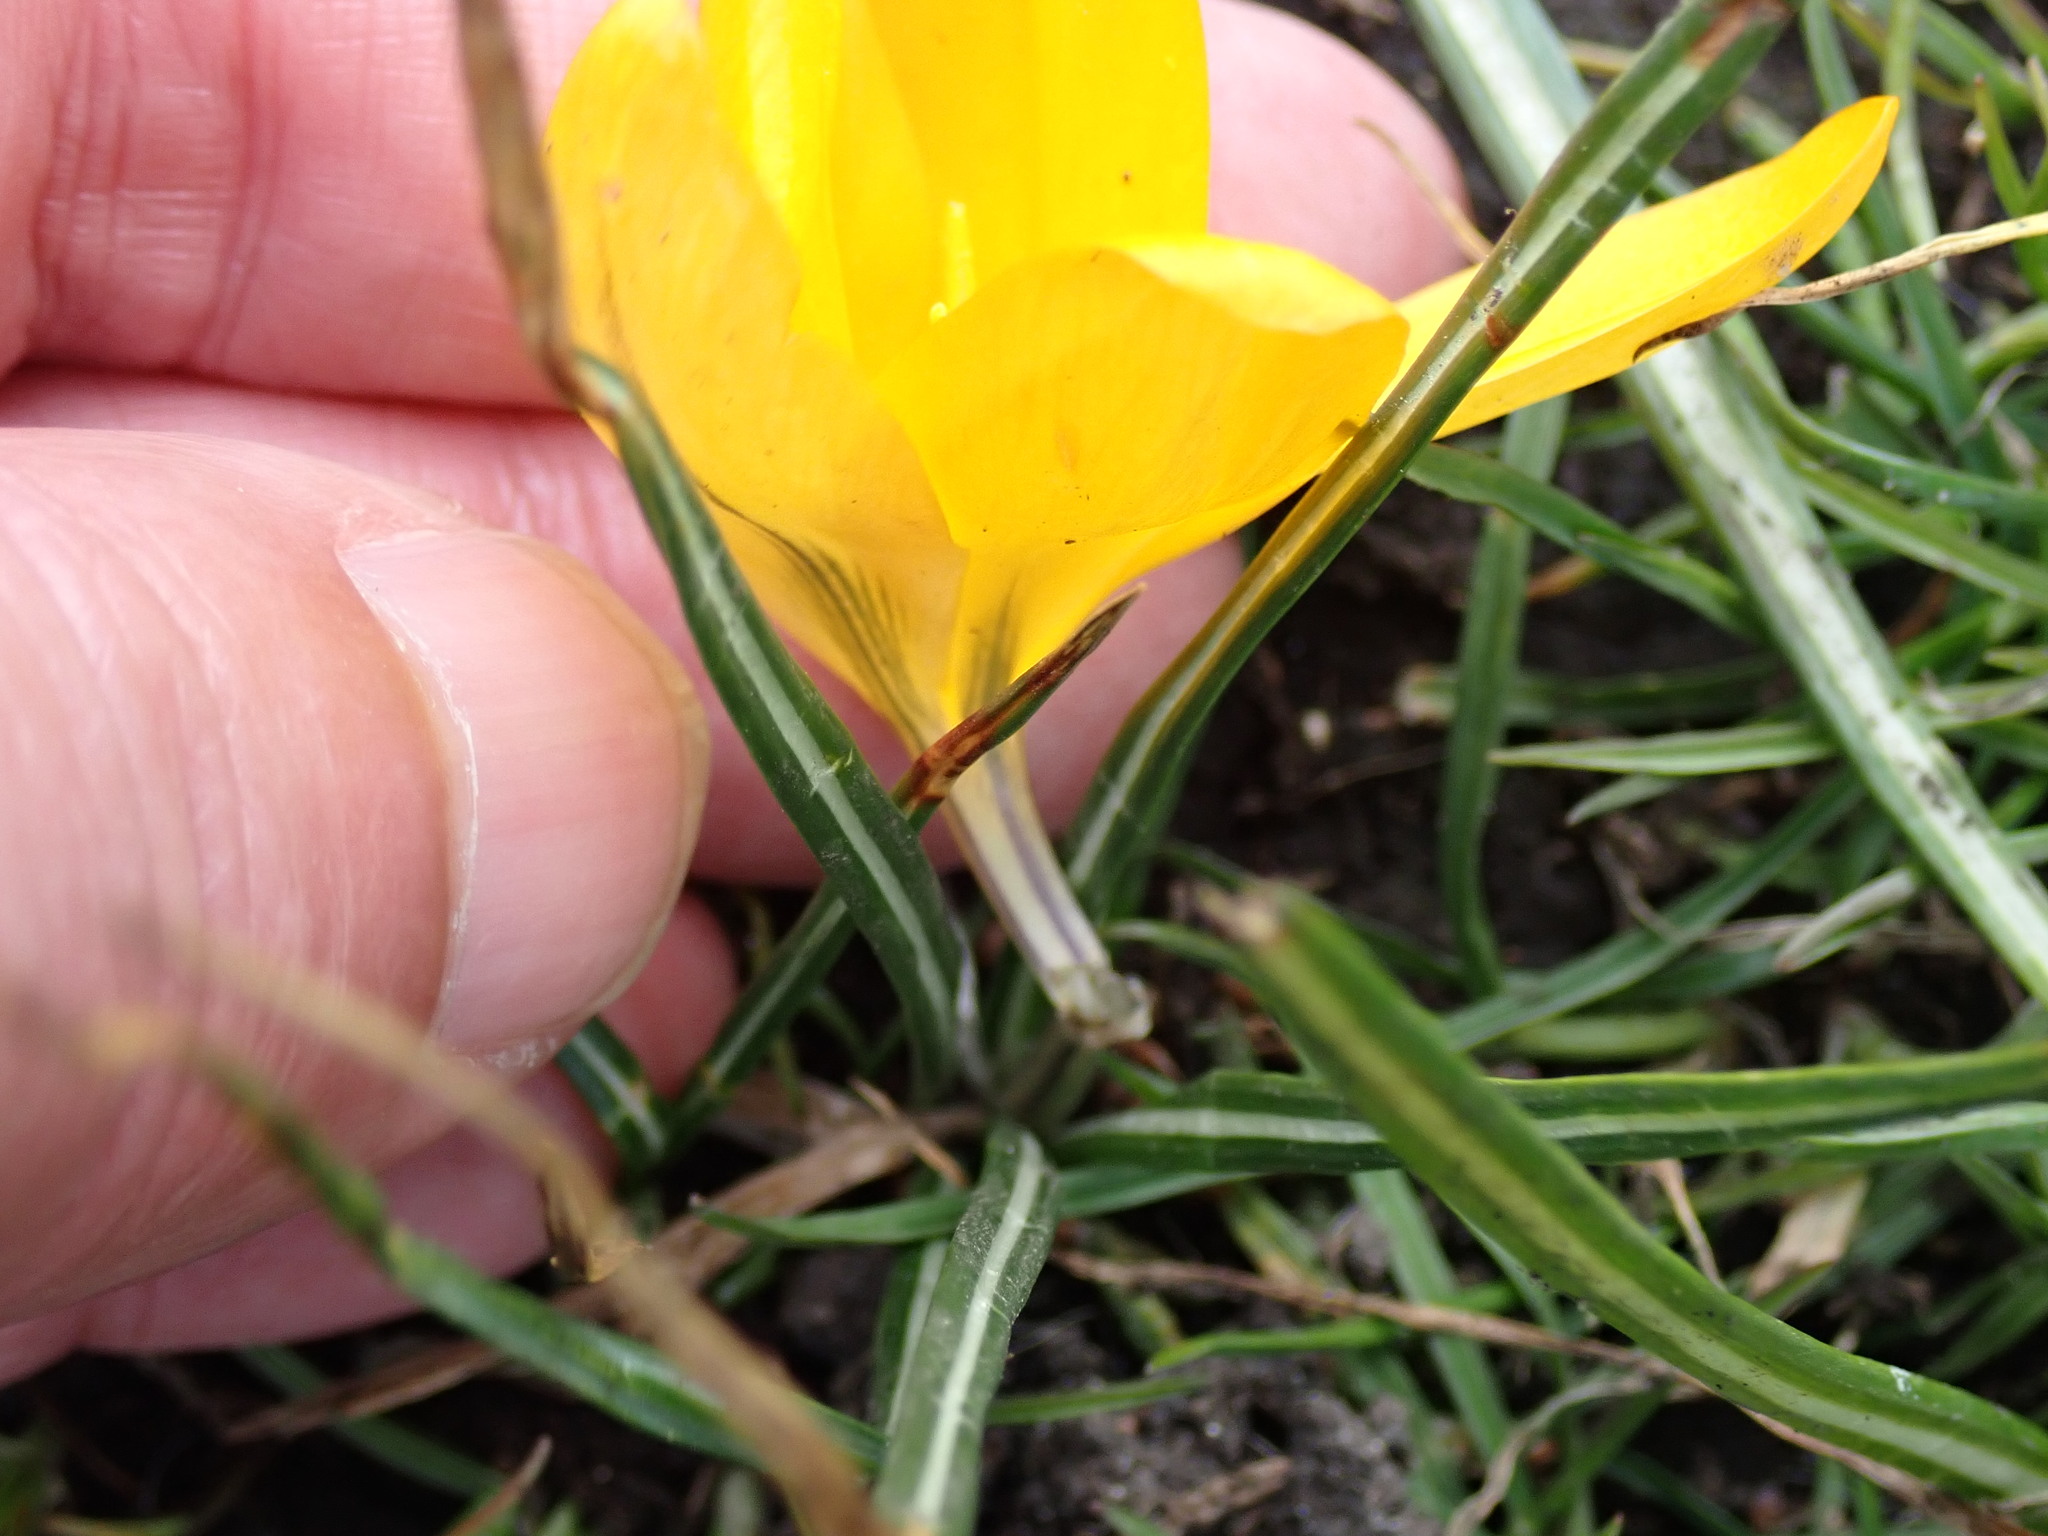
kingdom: Plantae
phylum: Tracheophyta
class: Liliopsida
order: Asparagales
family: Iridaceae
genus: Crocus
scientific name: Crocus luteus
